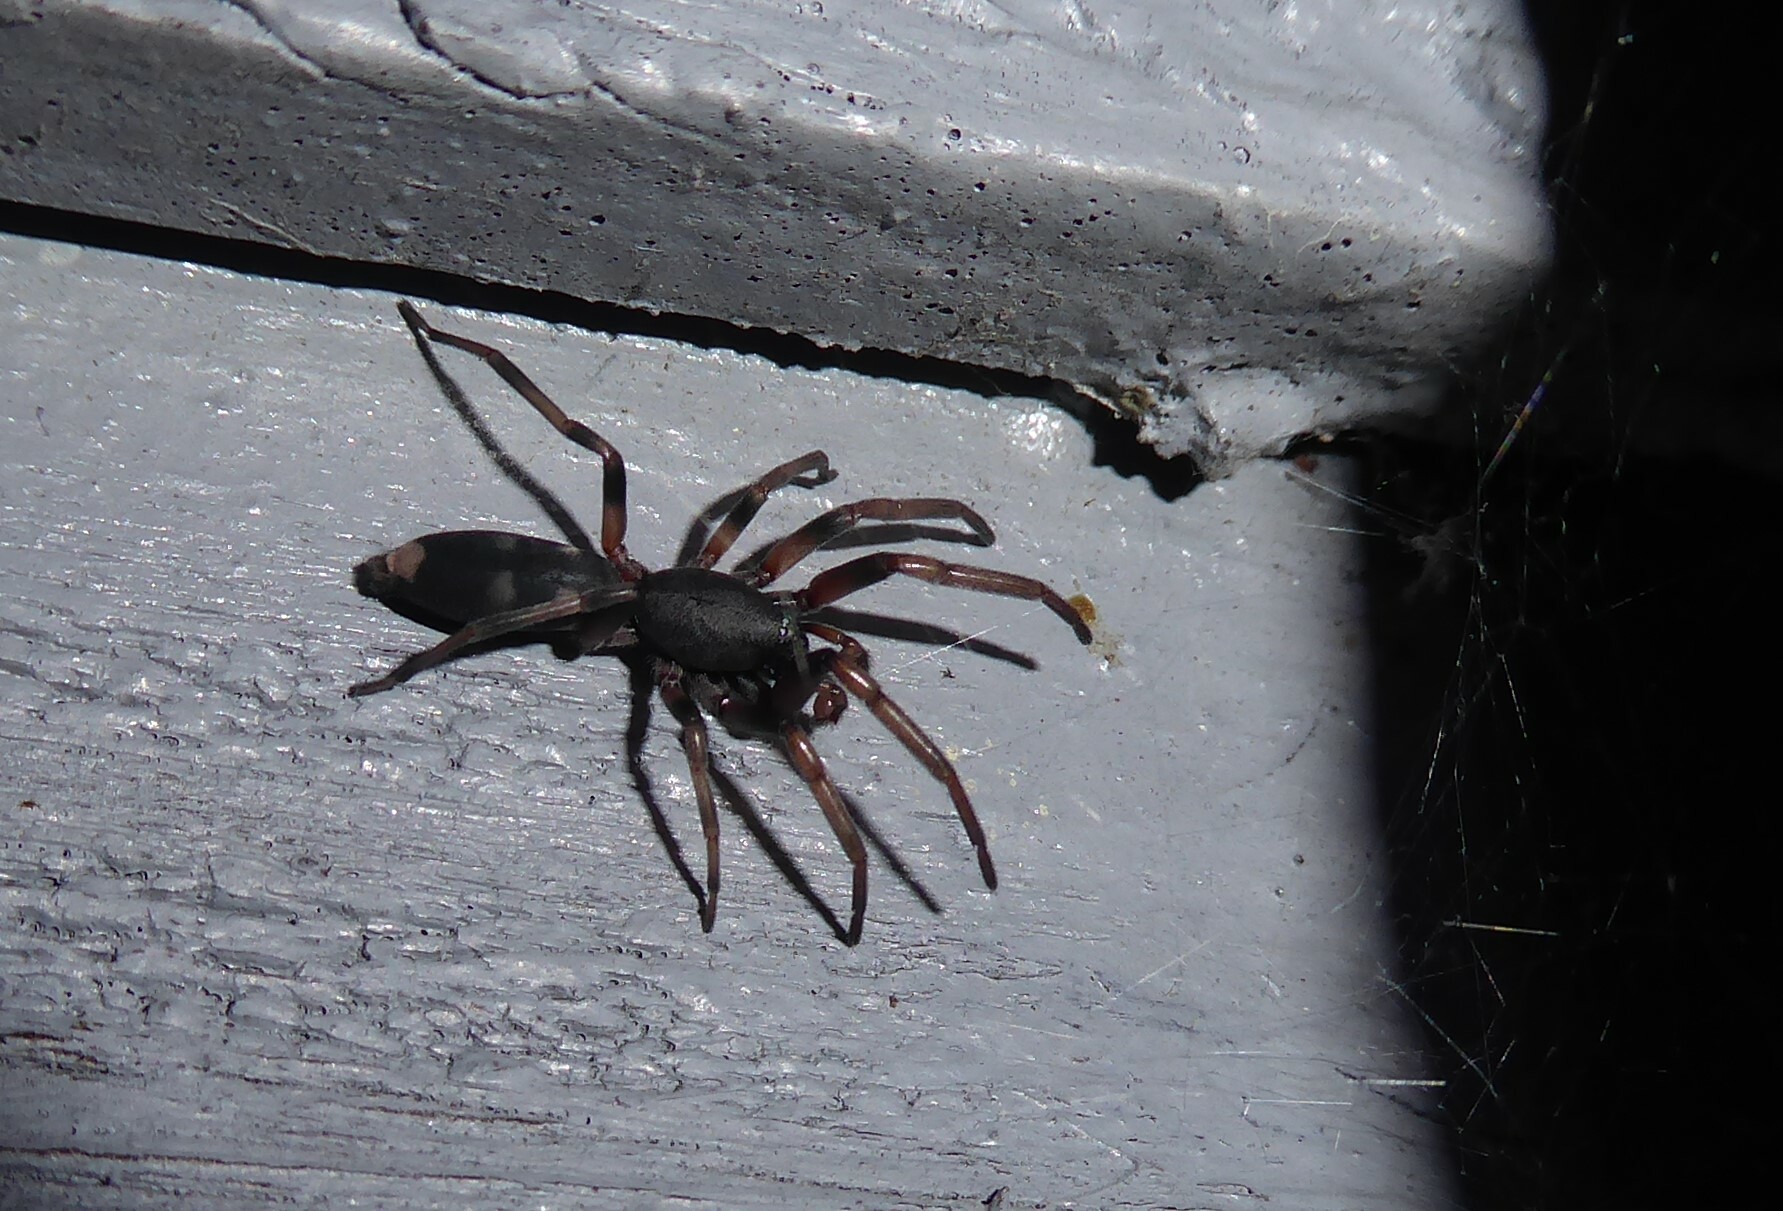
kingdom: Animalia
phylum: Arthropoda
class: Arachnida
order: Araneae
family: Lamponidae
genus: Lampona
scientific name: Lampona cylindrata
